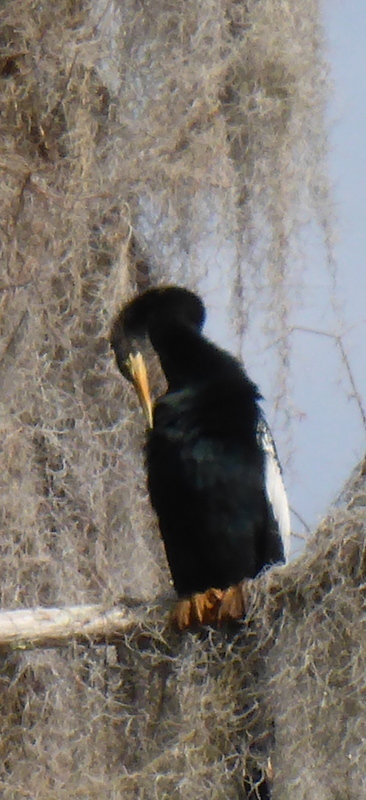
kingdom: Animalia
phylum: Chordata
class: Aves
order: Suliformes
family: Anhingidae
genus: Anhinga
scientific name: Anhinga anhinga
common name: Anhinga
